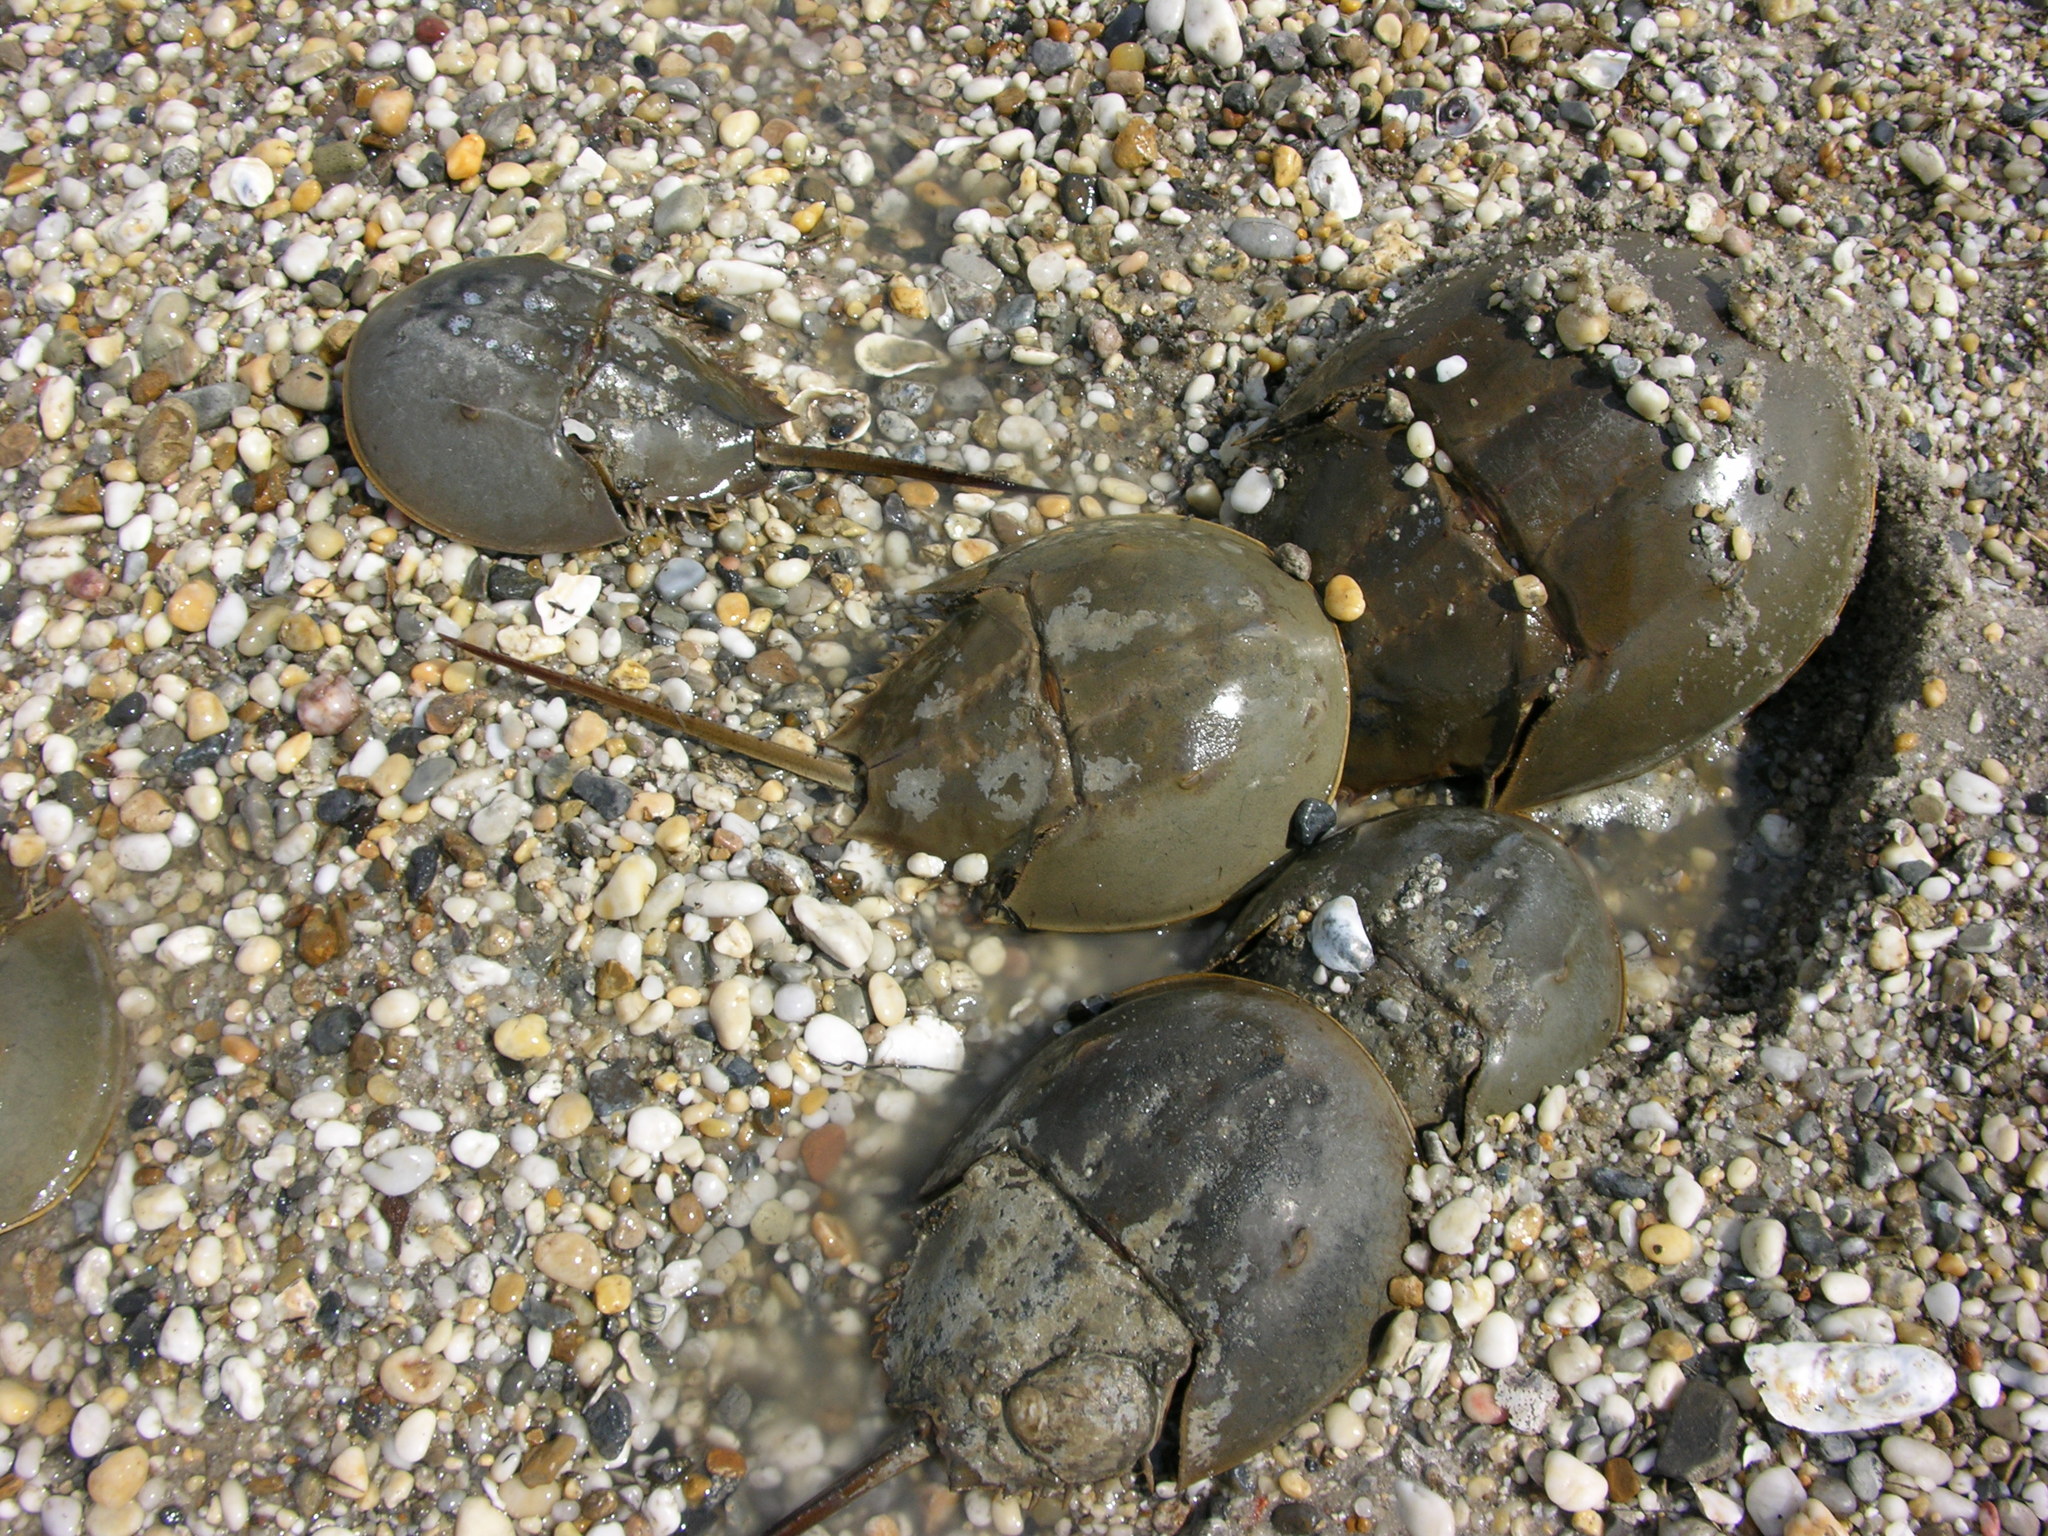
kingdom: Animalia
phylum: Arthropoda
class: Merostomata
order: Xiphosurida
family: Limulidae
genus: Limulus
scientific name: Limulus polyphemus
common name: Horseshoe crab
